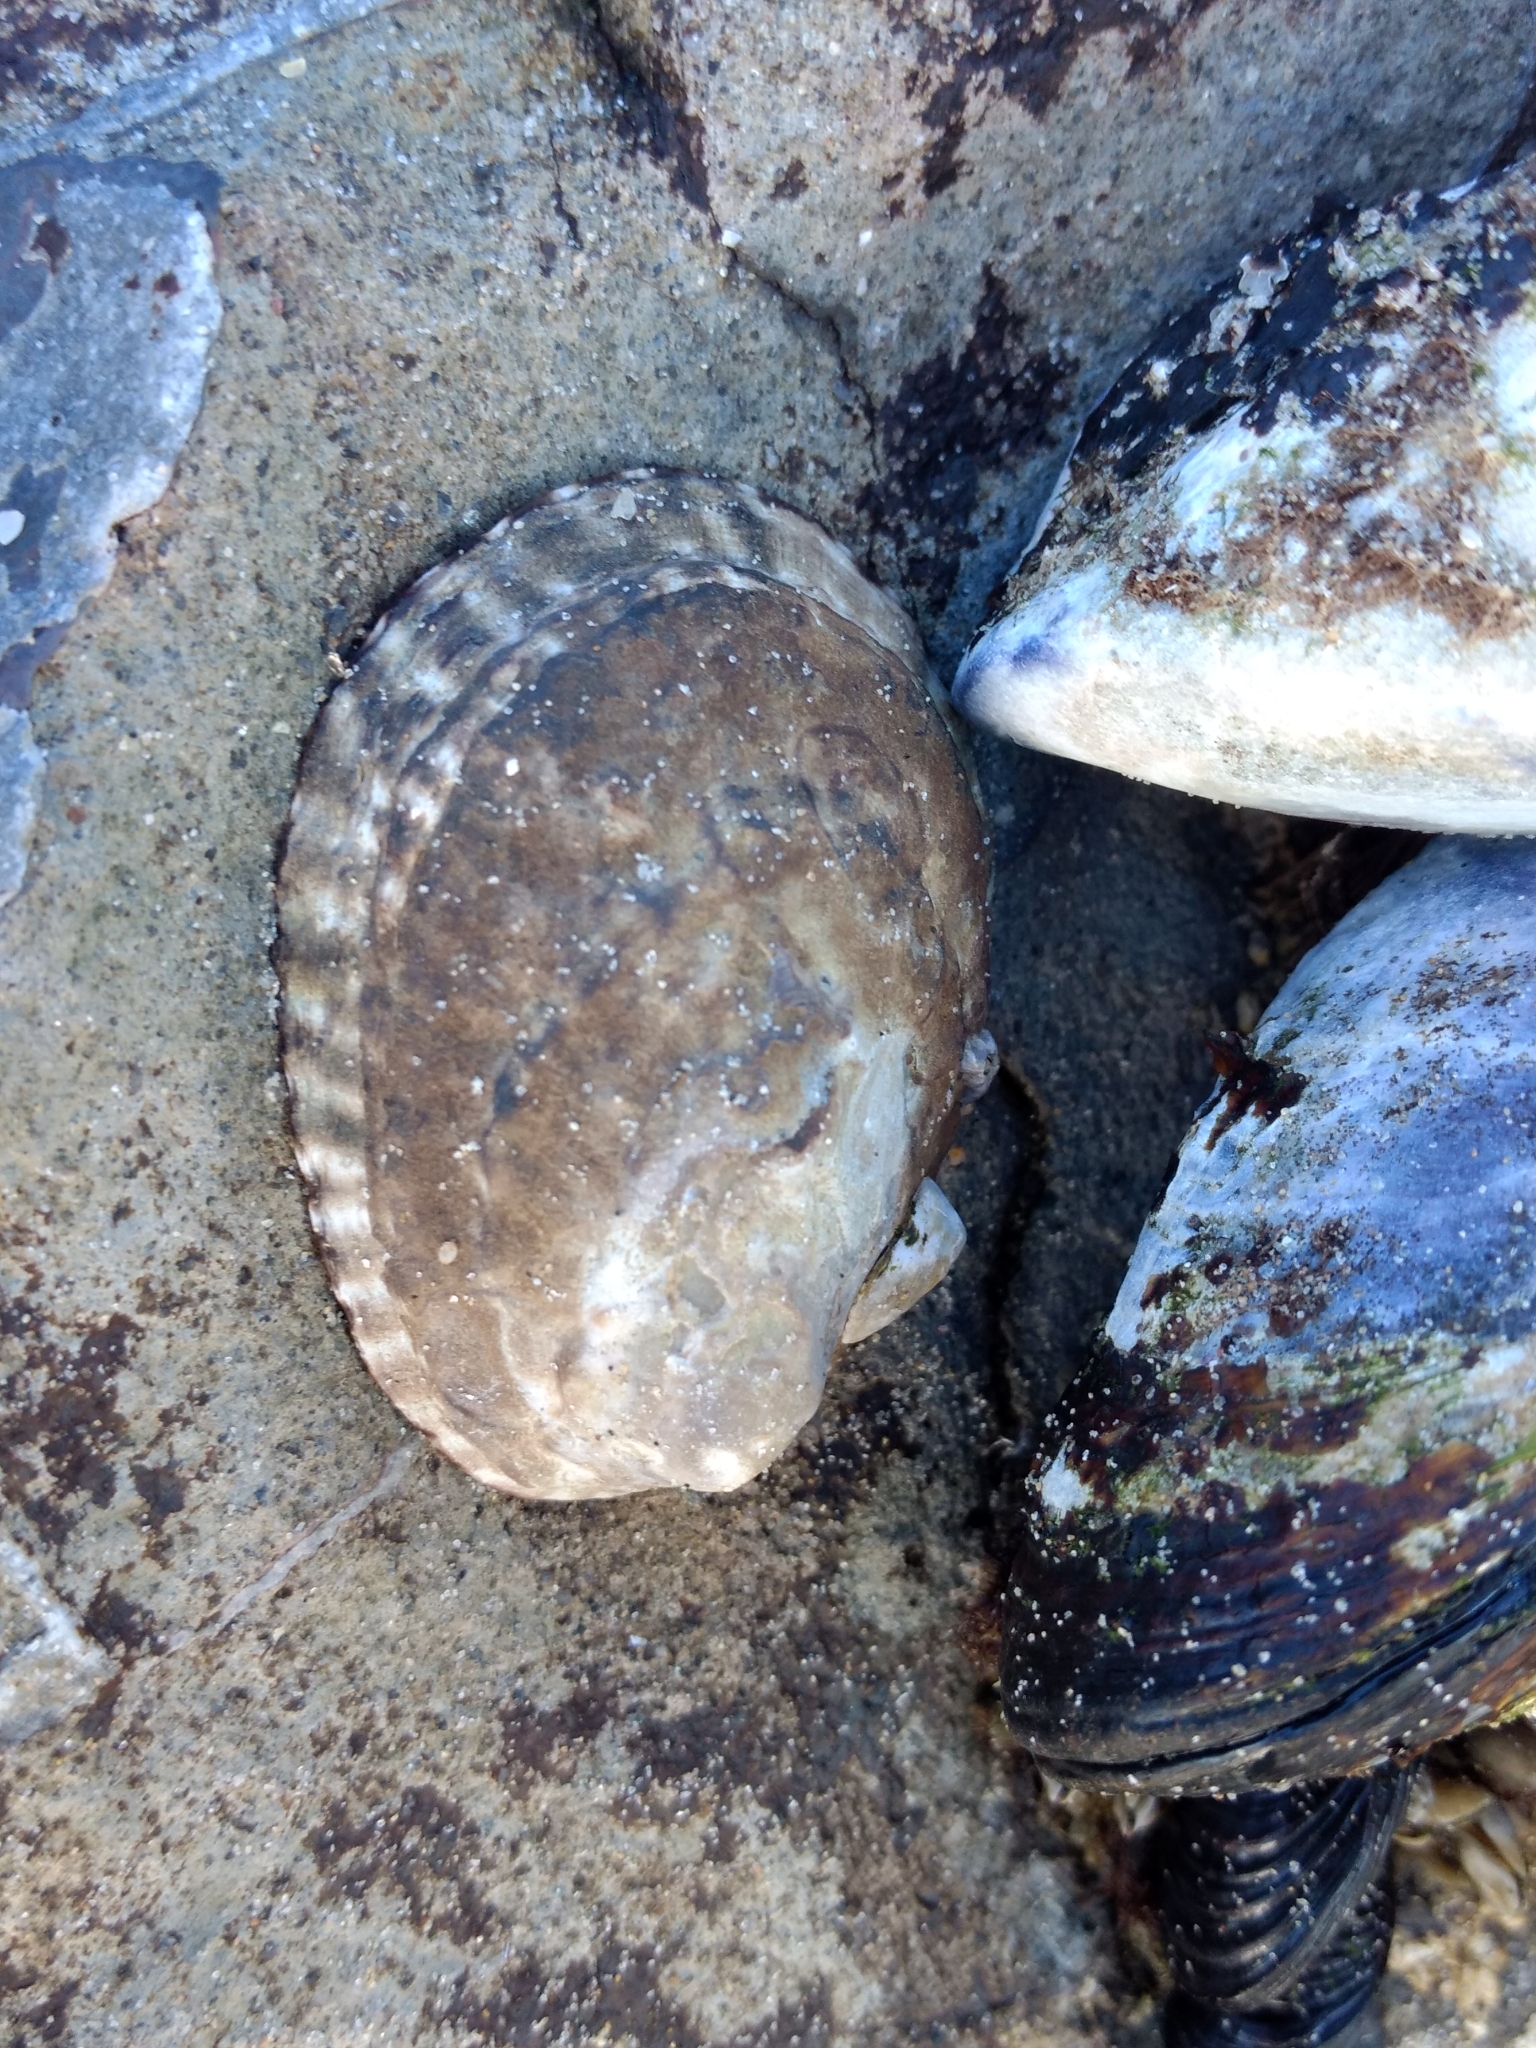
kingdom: Animalia
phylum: Mollusca
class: Gastropoda
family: Lottiidae
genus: Lottia
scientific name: Lottia gigantea
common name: Owl limpet
